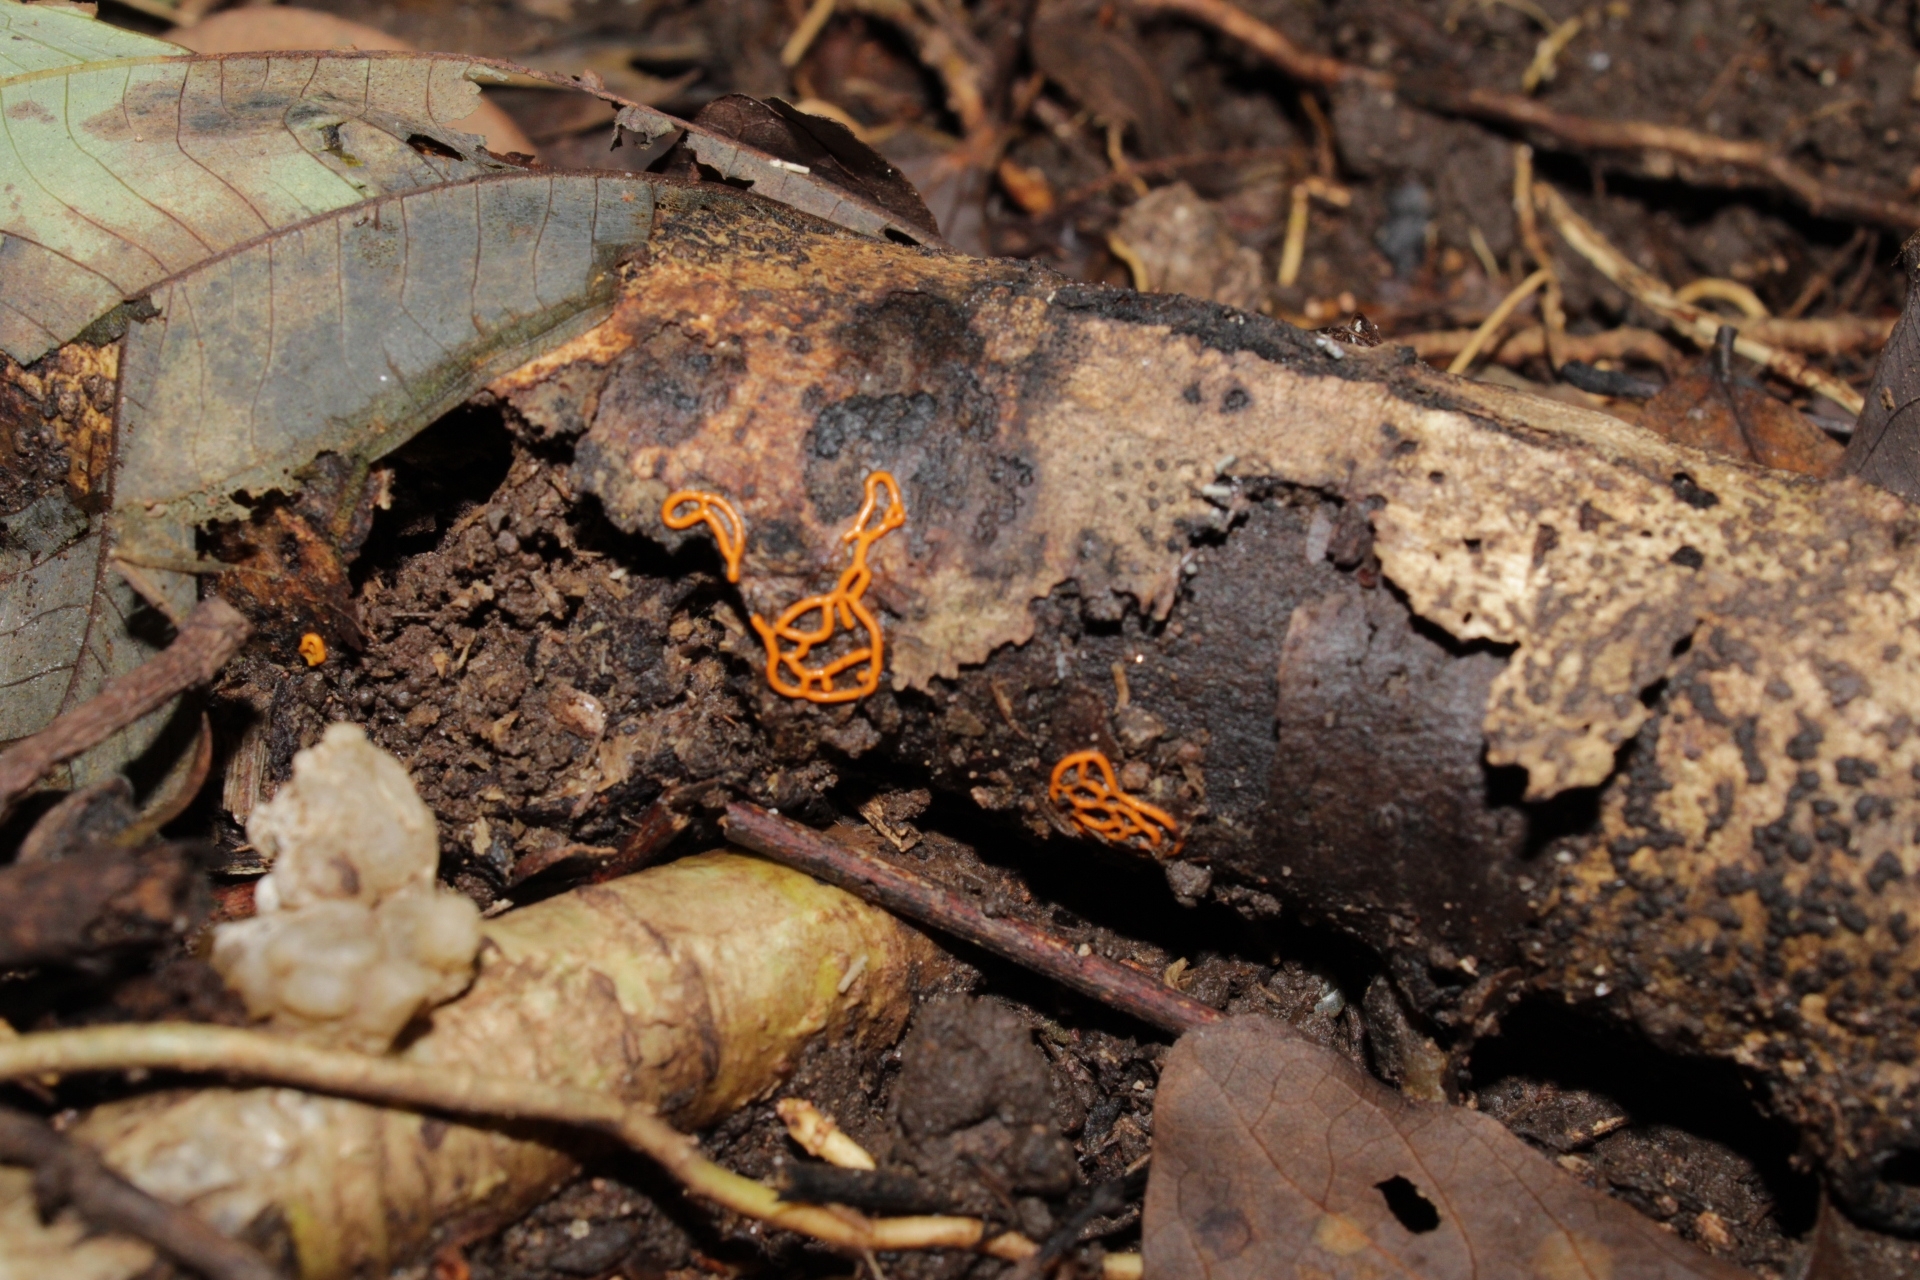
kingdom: Protozoa
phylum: Mycetozoa
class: Myxomycetes
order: Trichiales
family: Arcyriaceae
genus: Hemitrichia
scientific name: Hemitrichia serpula
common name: Pretzel slime mold
